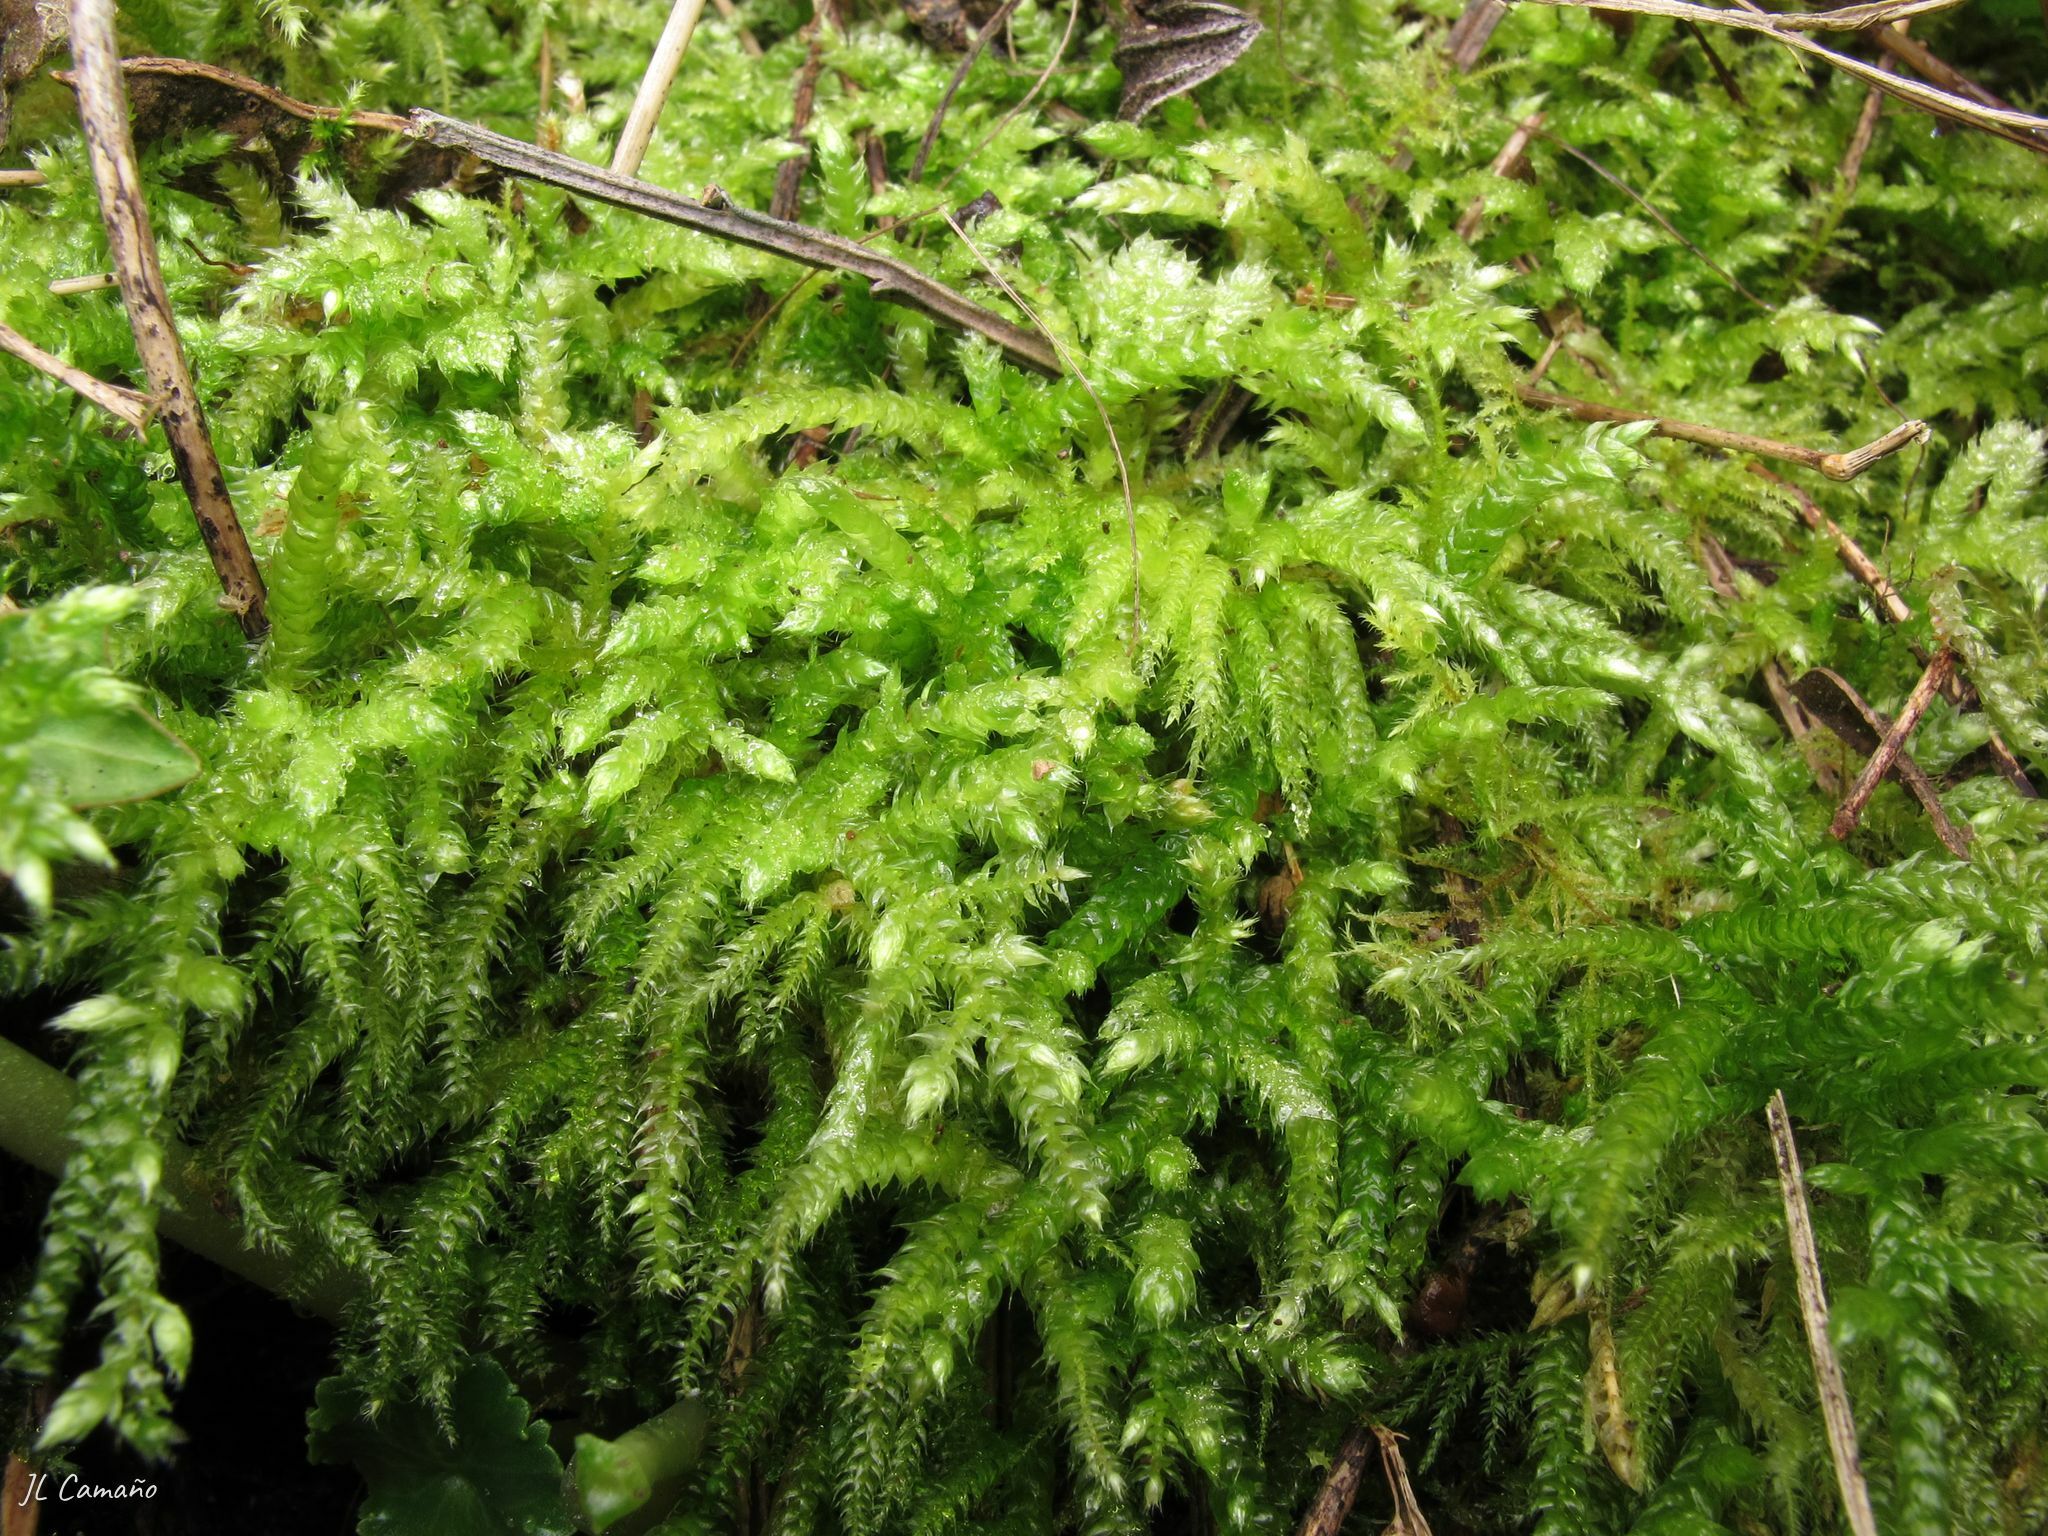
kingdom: Plantae
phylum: Bryophyta
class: Bryopsida
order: Hypnales
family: Brachytheciaceae
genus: Brachythecium
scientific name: Brachythecium rutabulum
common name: Rough-stalked feather-moss
